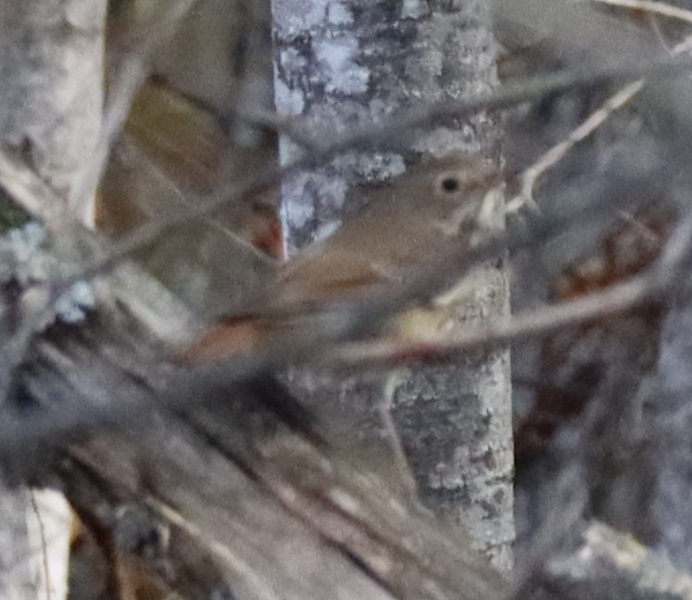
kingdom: Animalia
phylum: Chordata
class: Aves
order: Passeriformes
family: Turdidae
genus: Catharus
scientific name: Catharus guttatus
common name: Hermit thrush
